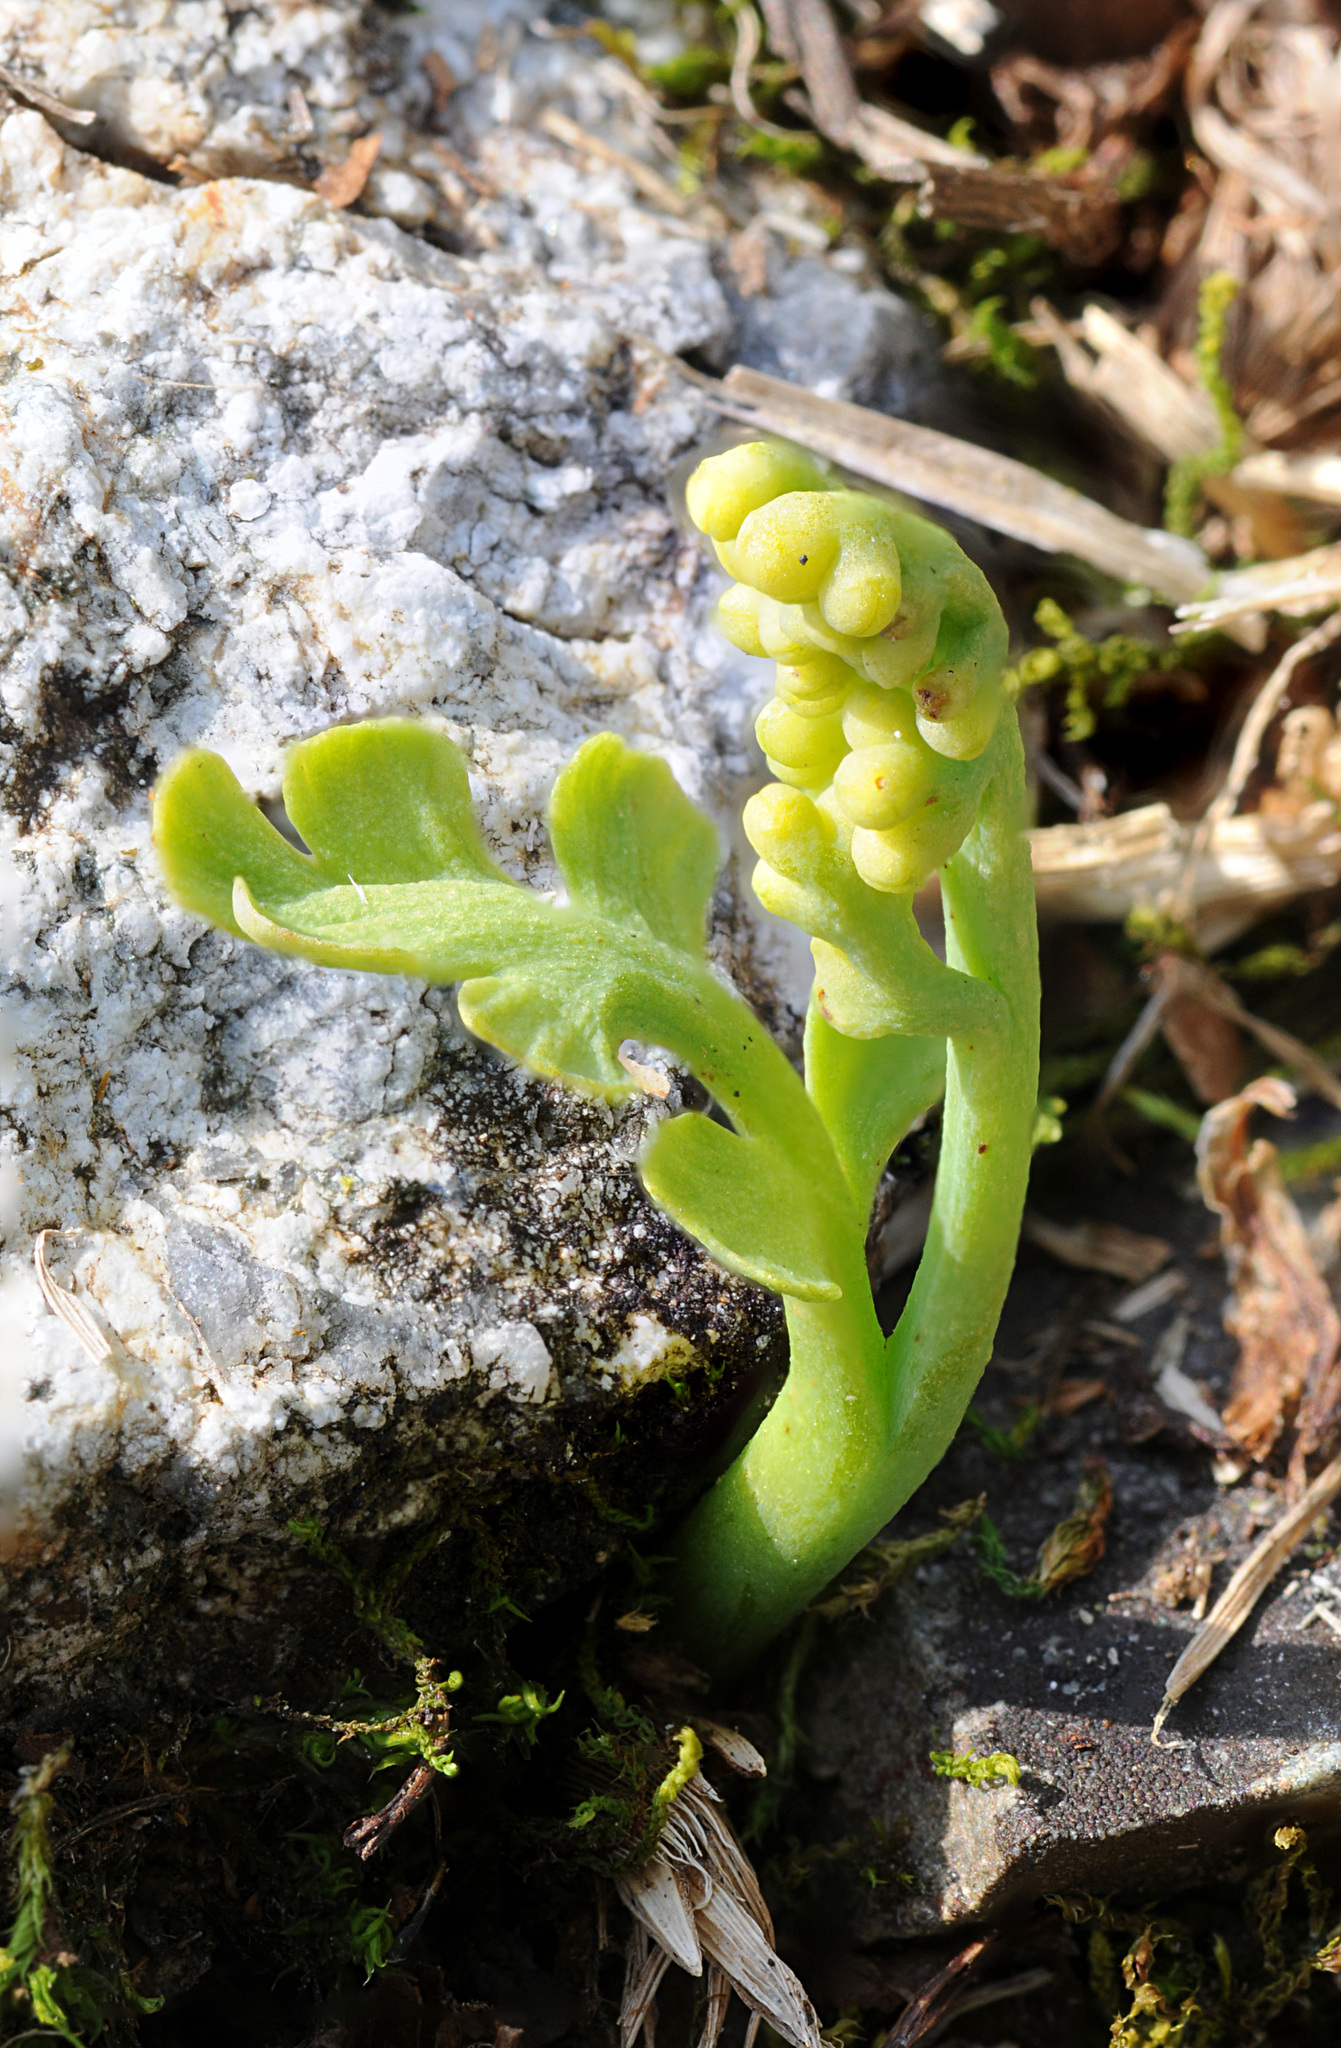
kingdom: Plantae
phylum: Tracheophyta
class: Polypodiopsida
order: Ophioglossales
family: Ophioglossaceae
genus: Botrychium
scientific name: Botrychium montanum
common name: Mountain moonwort
